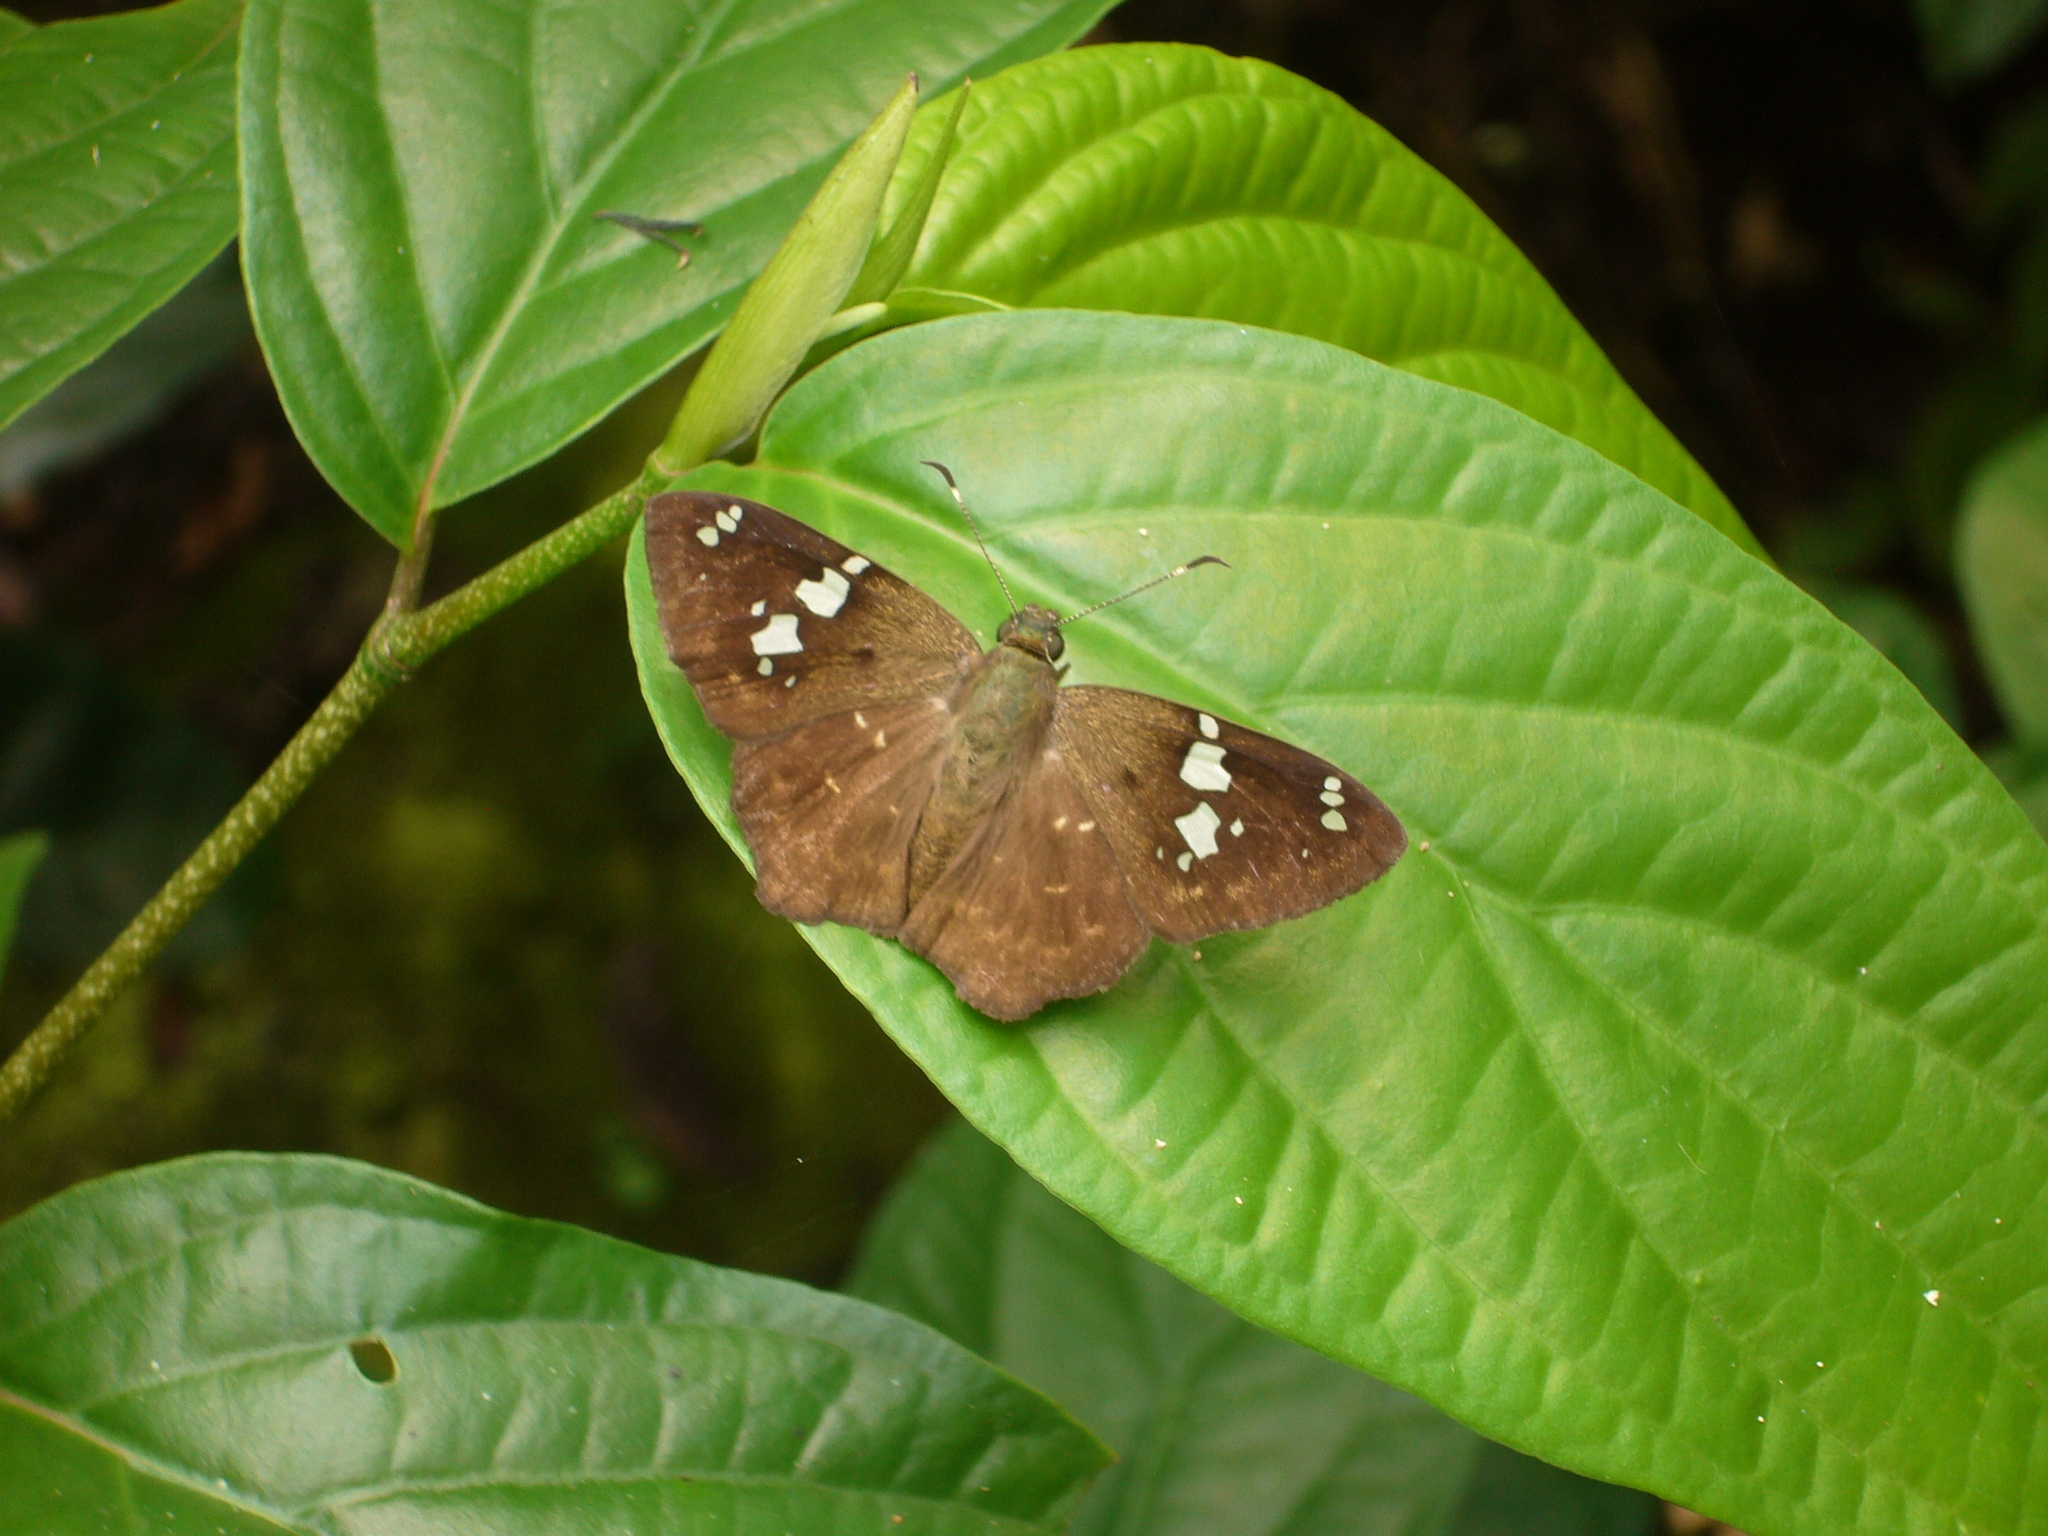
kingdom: Animalia
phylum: Arthropoda
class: Insecta
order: Lepidoptera
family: Hesperiidae
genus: Celaenorrhinus
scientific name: Celaenorrhinus similis
